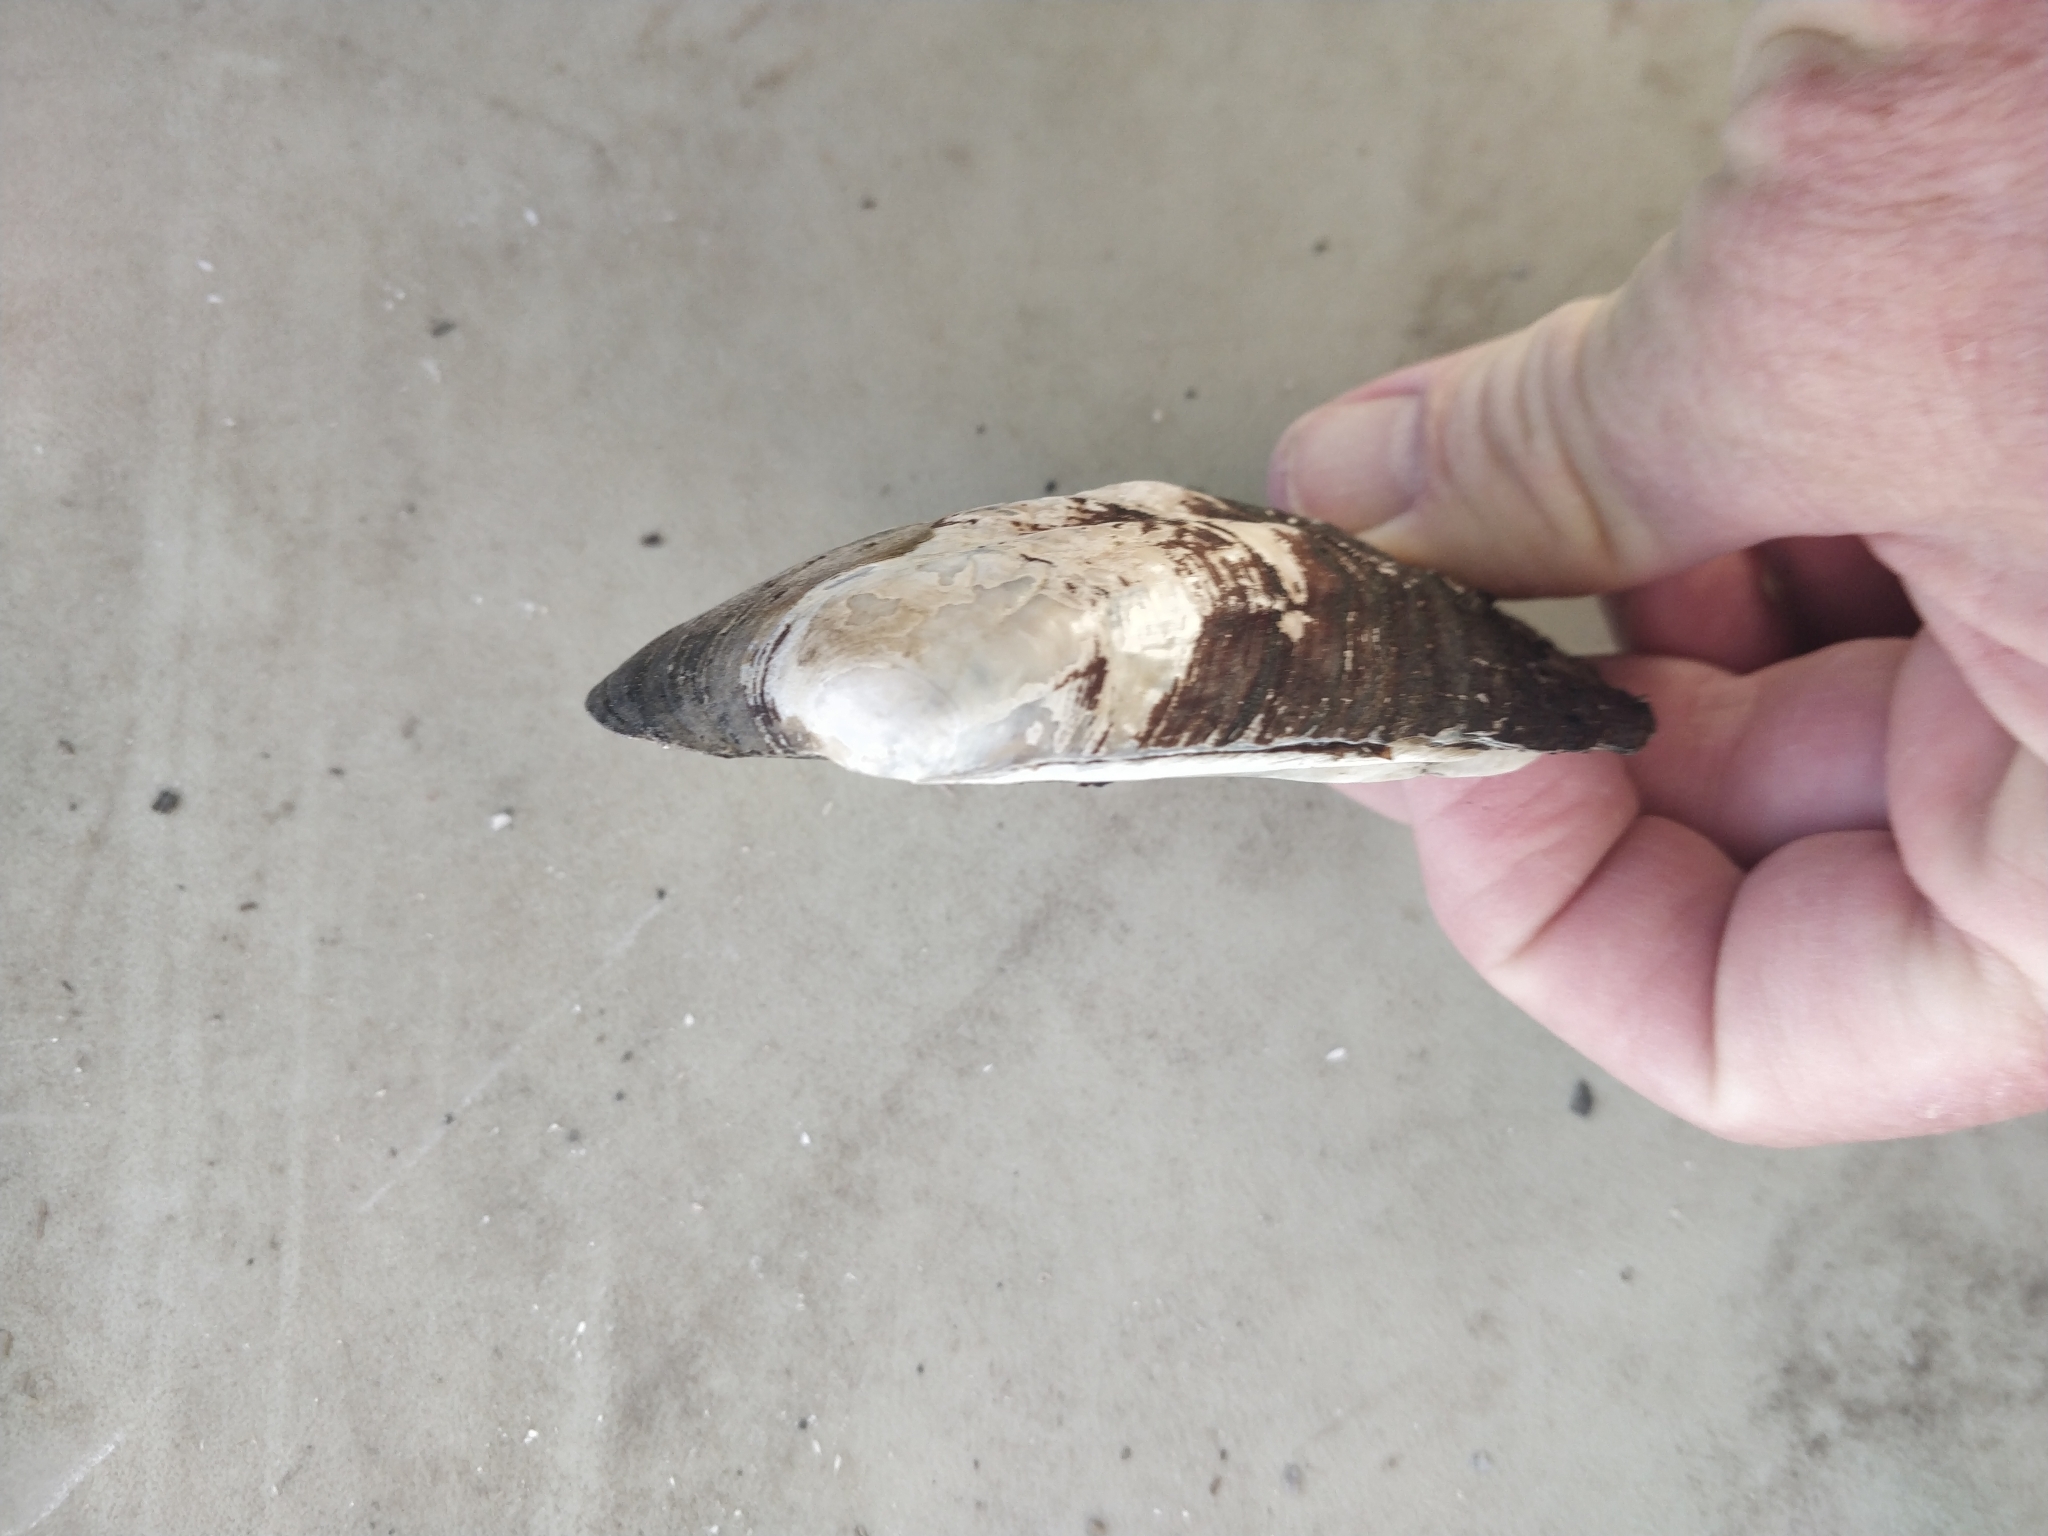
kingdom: Animalia
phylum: Mollusca
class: Bivalvia
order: Unionida
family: Unionidae
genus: Amblema
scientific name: Amblema plicata
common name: Threeridge
